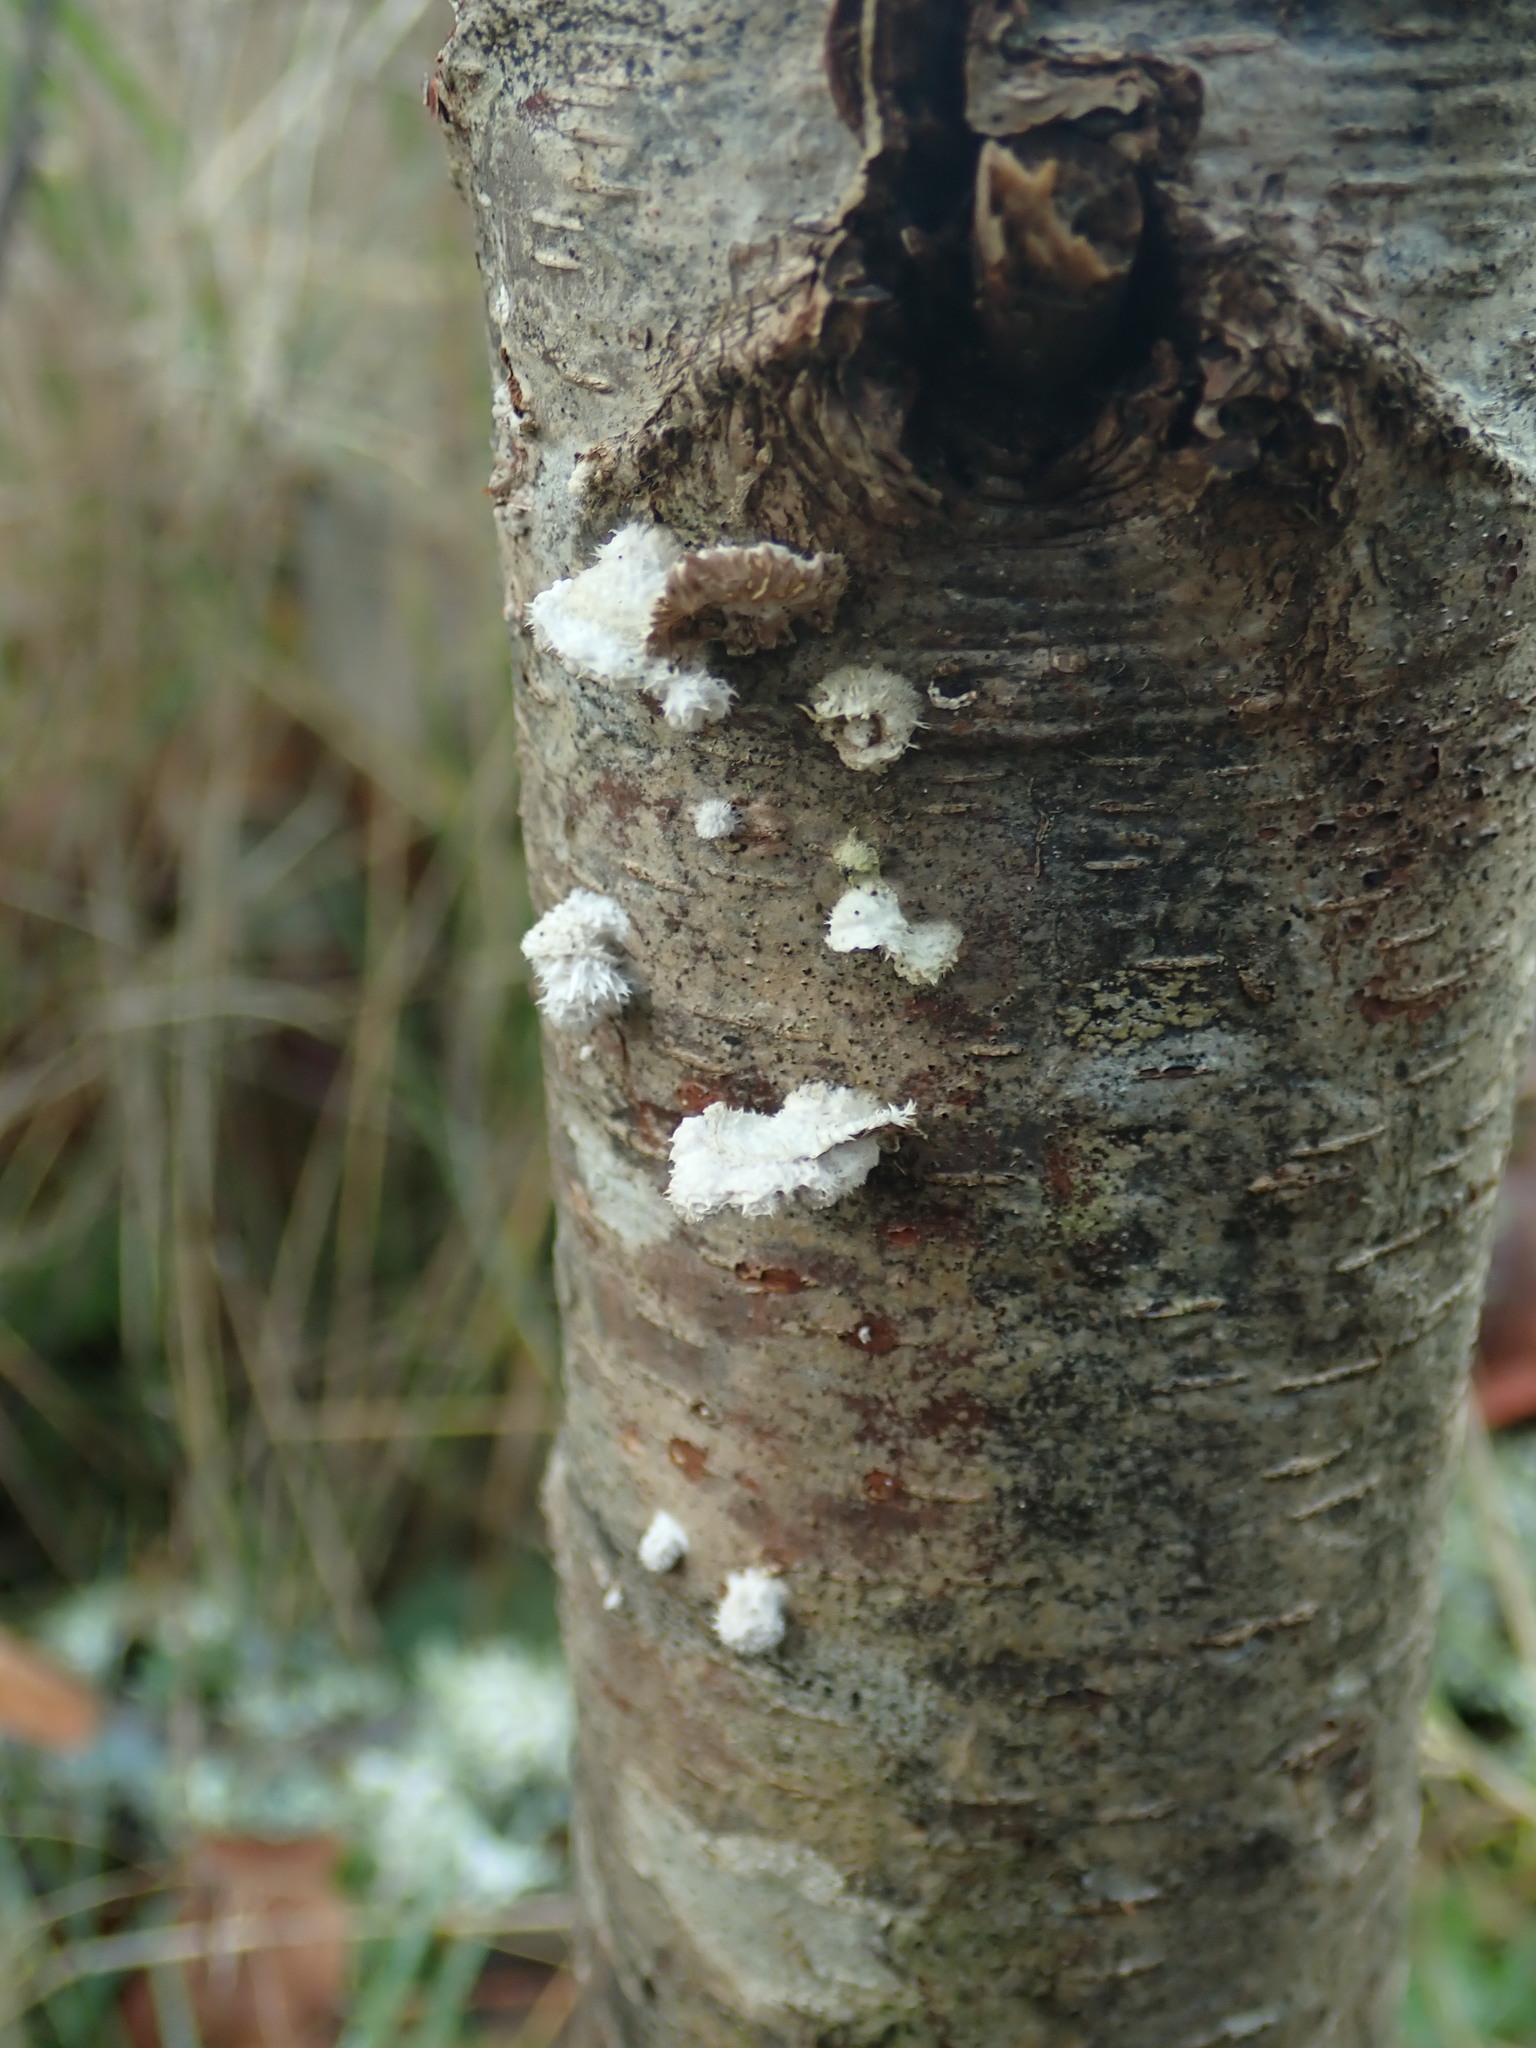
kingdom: Fungi
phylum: Basidiomycota
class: Agaricomycetes
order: Agaricales
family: Schizophyllaceae
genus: Schizophyllum
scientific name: Schizophyllum commune
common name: Common porecrust
